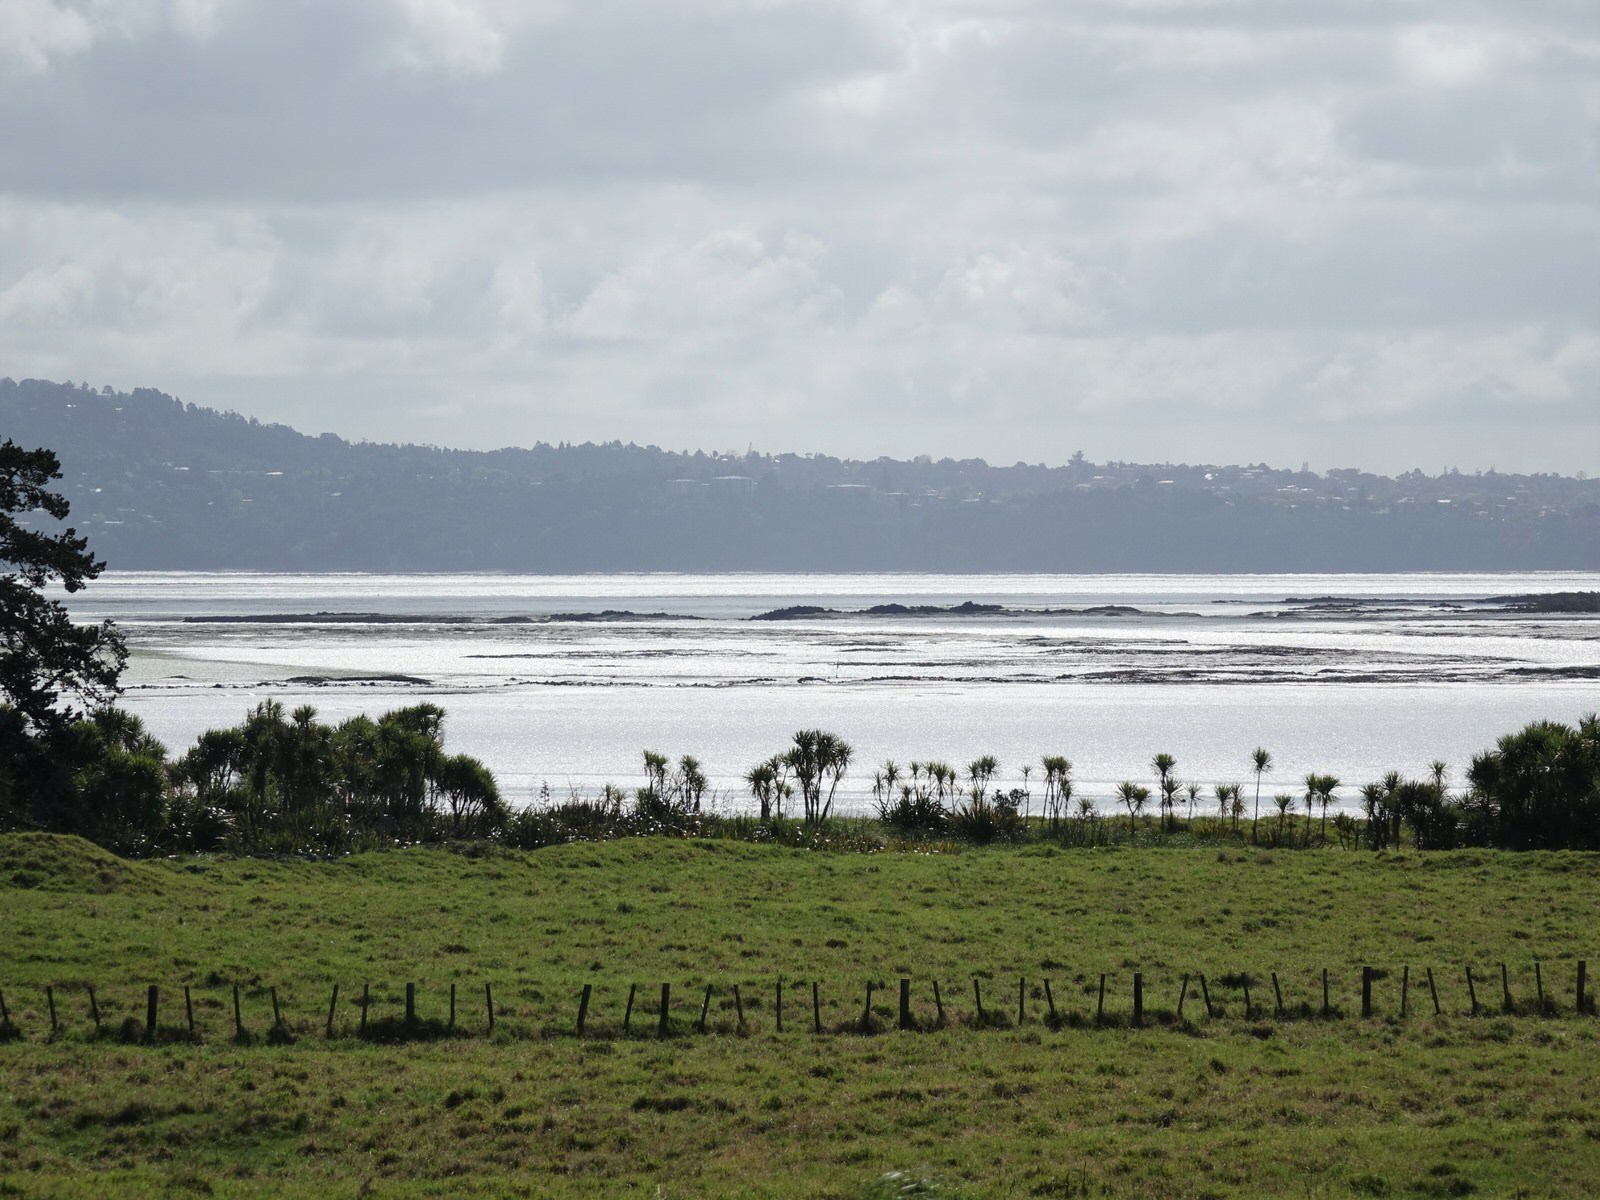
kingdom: Plantae
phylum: Tracheophyta
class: Liliopsida
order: Asparagales
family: Asparagaceae
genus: Cordyline
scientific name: Cordyline australis
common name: Cabbage-palm
